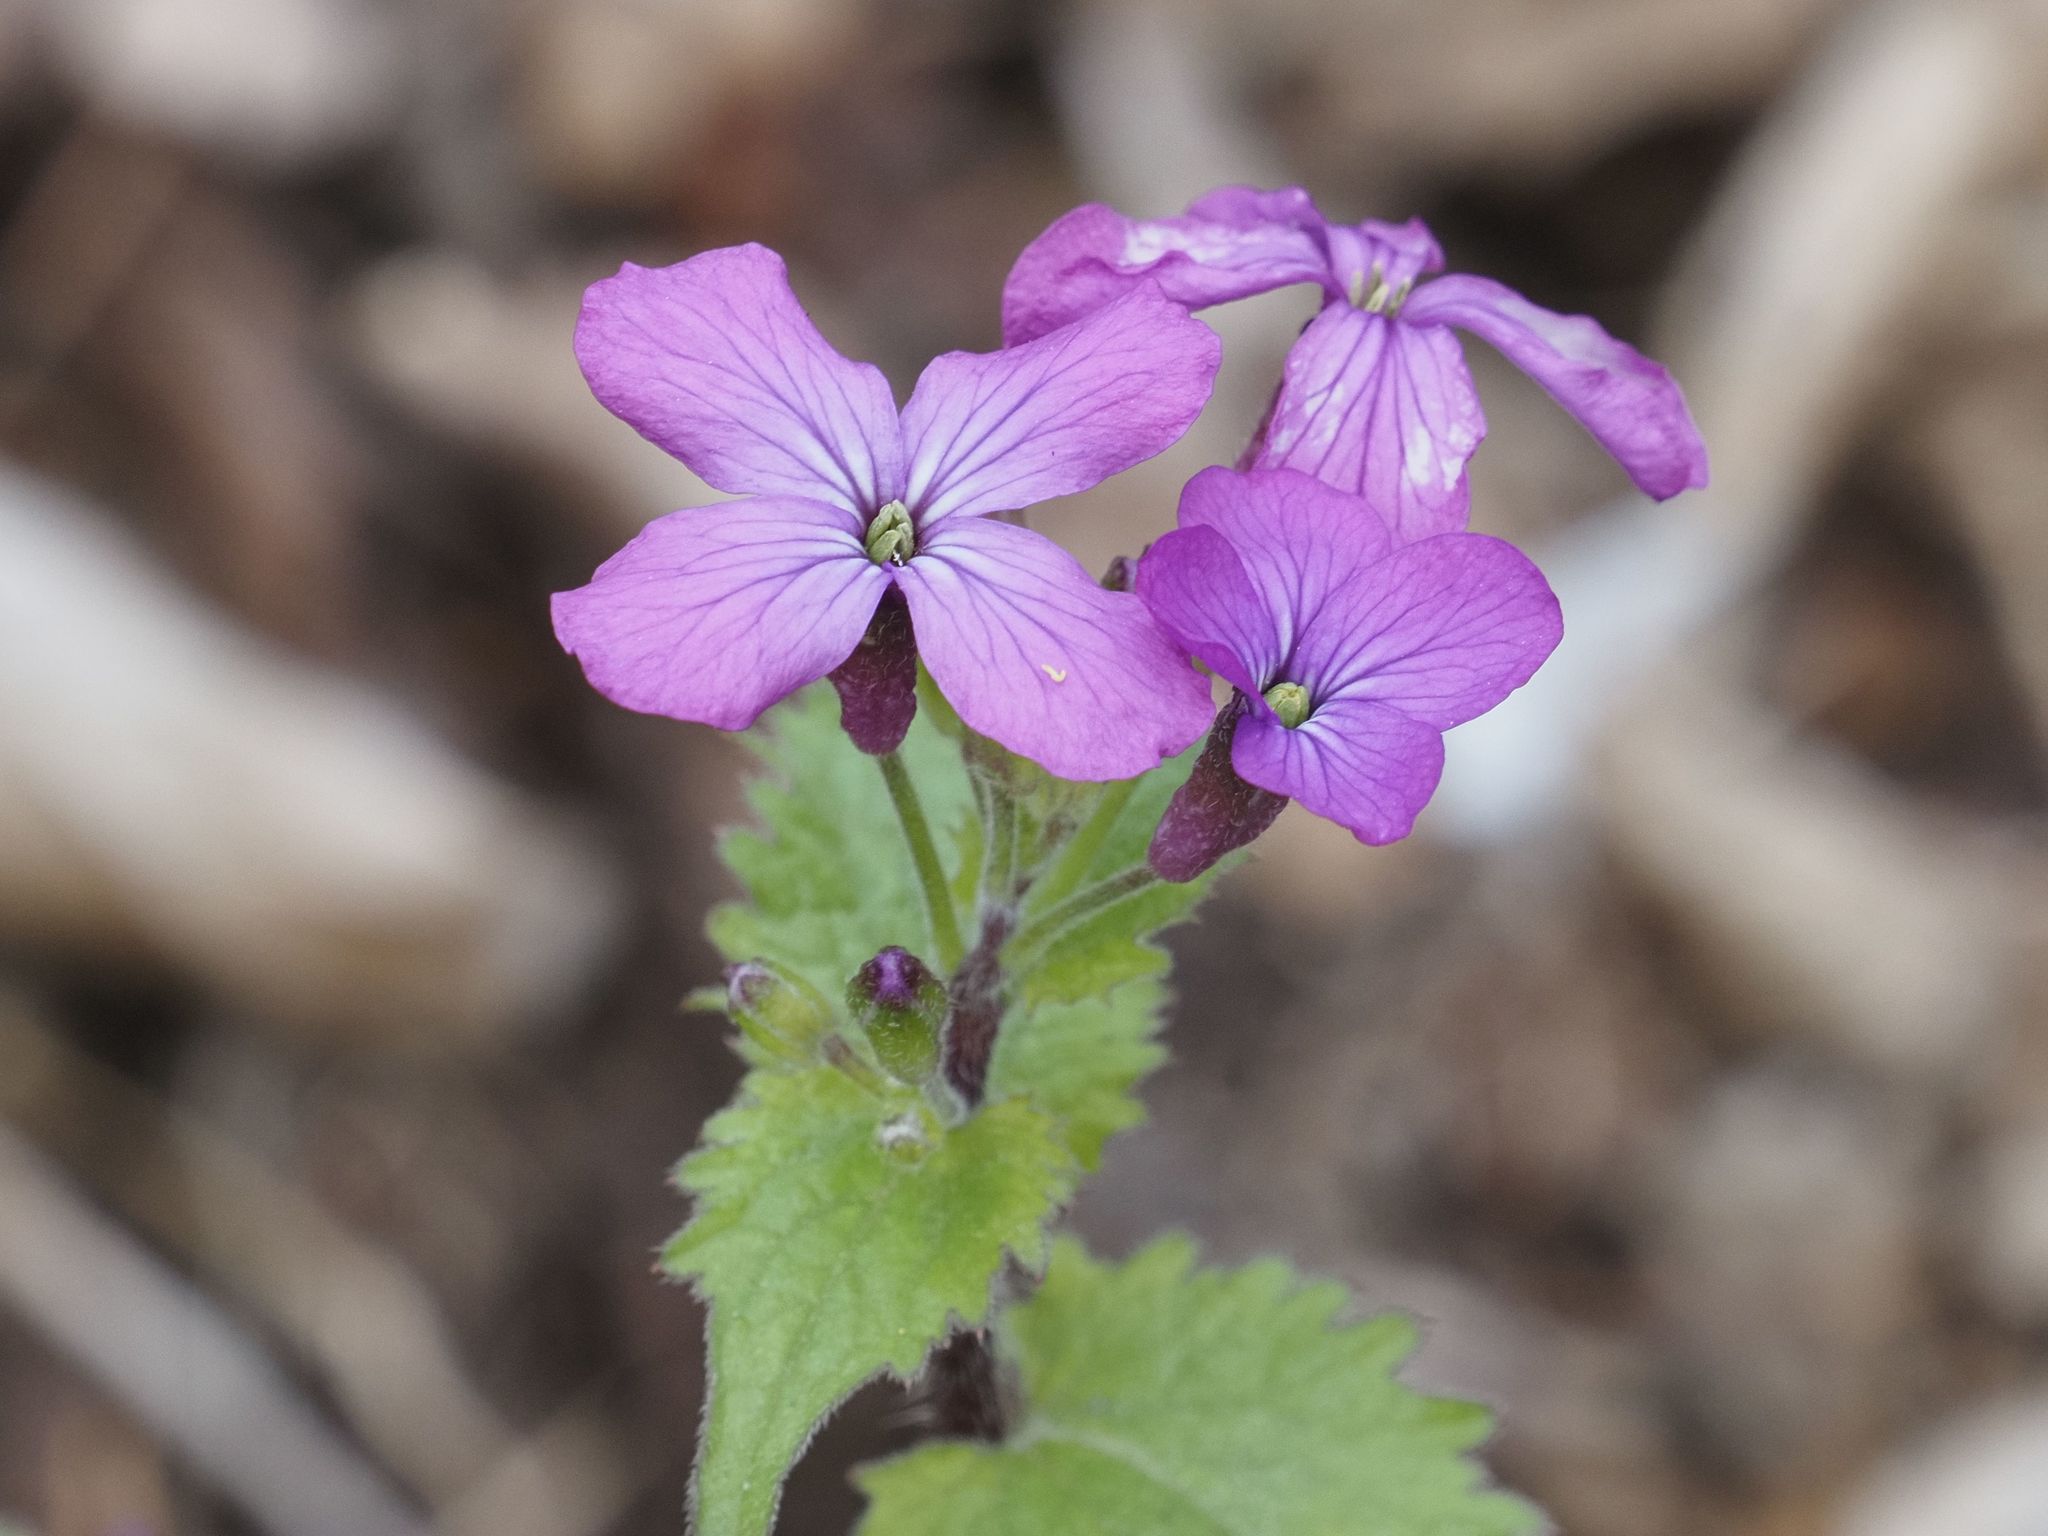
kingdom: Plantae
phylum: Tracheophyta
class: Magnoliopsida
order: Brassicales
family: Brassicaceae
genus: Lunaria
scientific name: Lunaria annua
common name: Honesty
